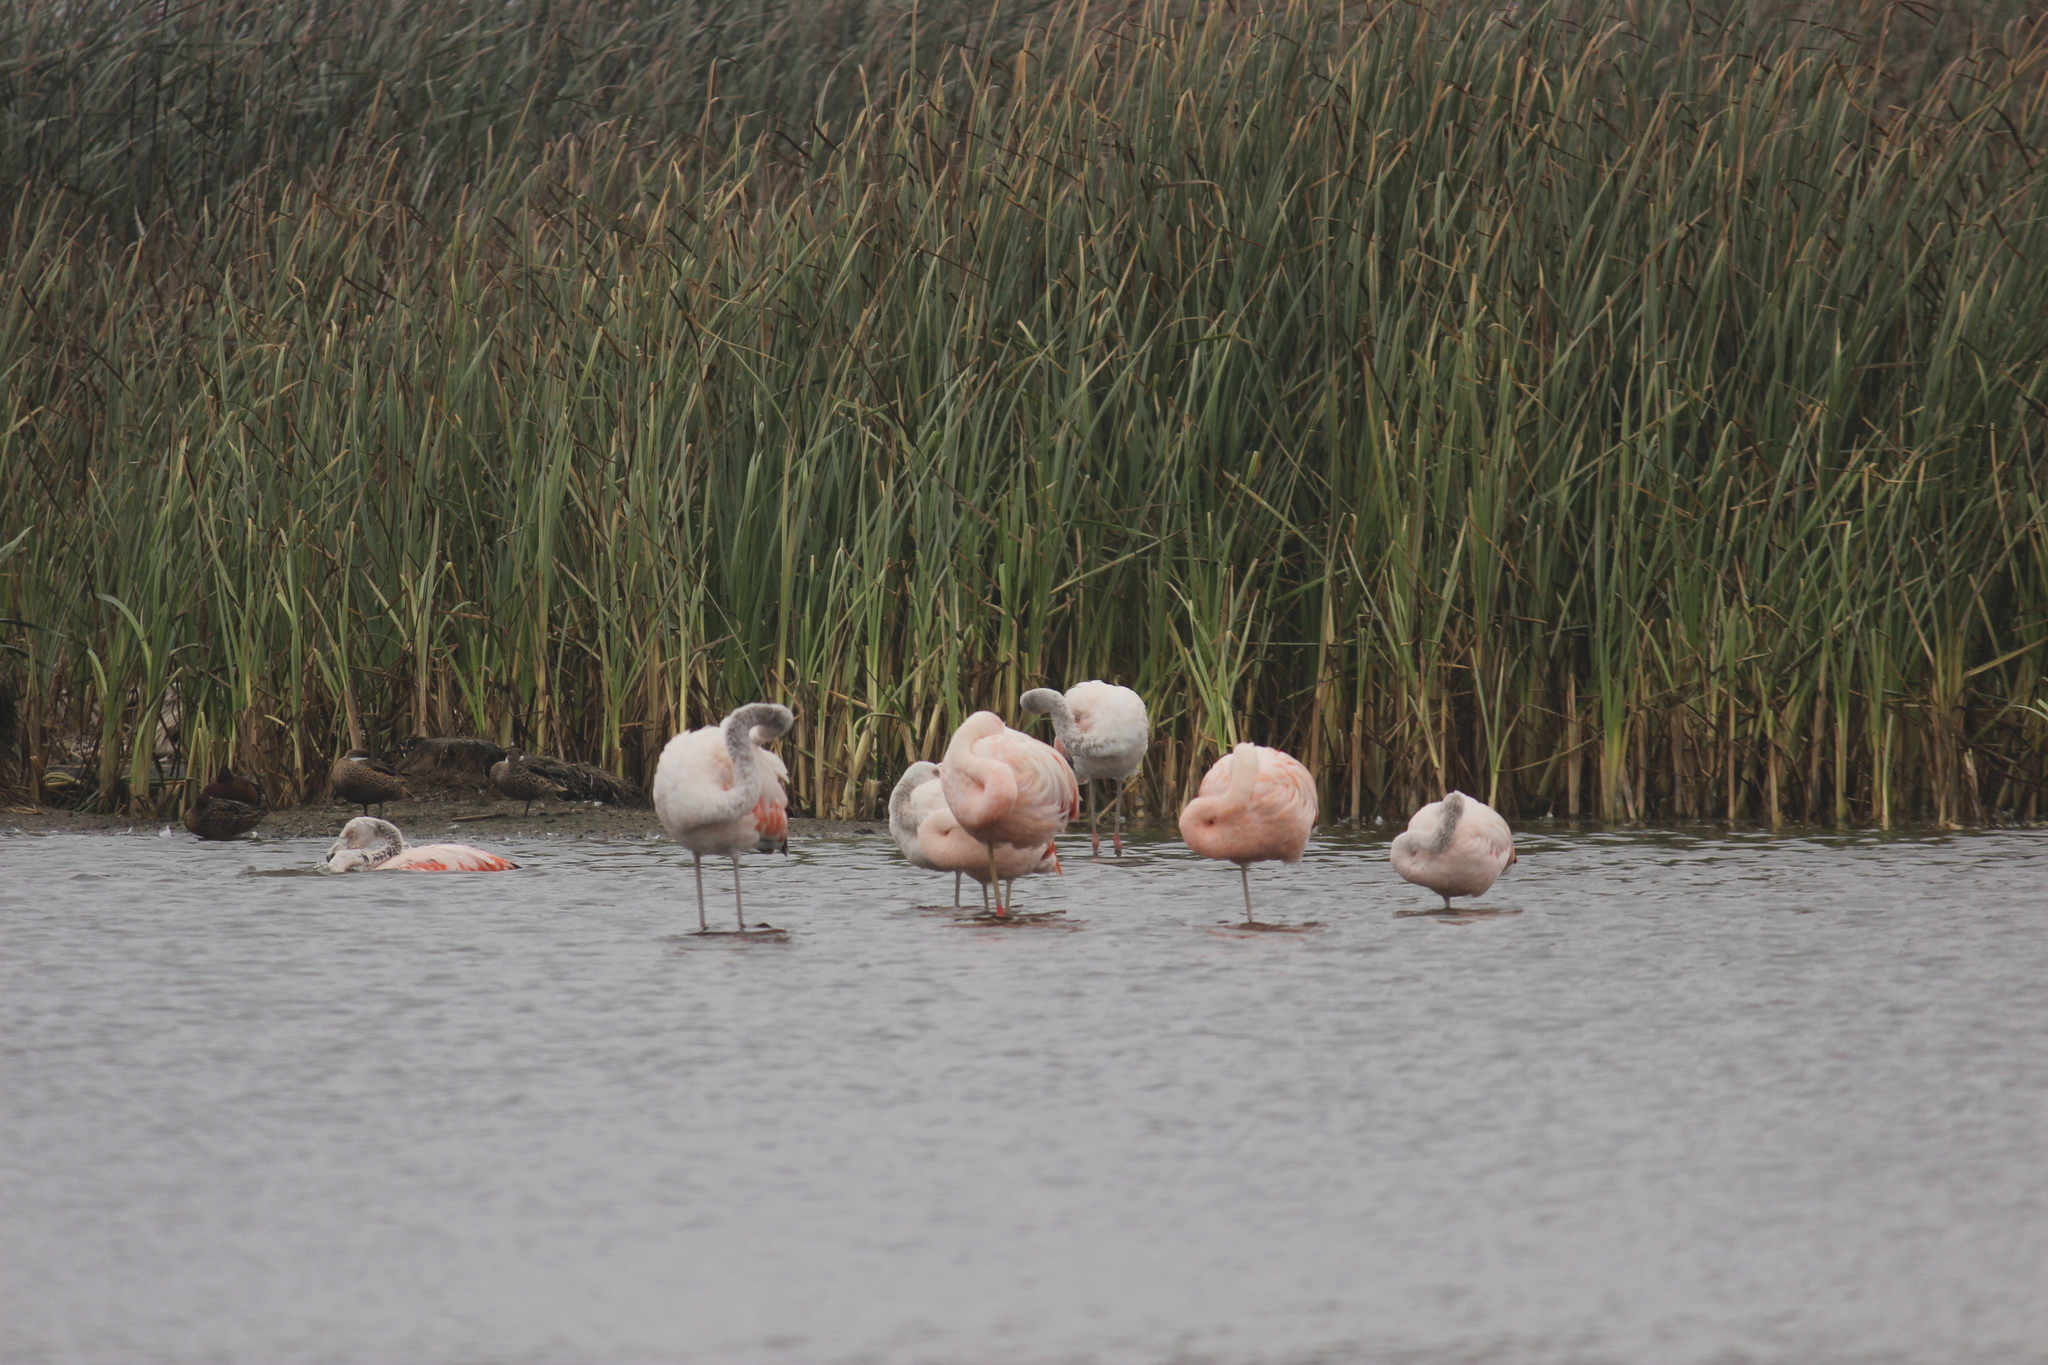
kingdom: Animalia
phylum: Chordata
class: Aves
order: Phoenicopteriformes
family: Phoenicopteridae
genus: Phoenicopterus
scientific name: Phoenicopterus chilensis
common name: Chilean flamingo
